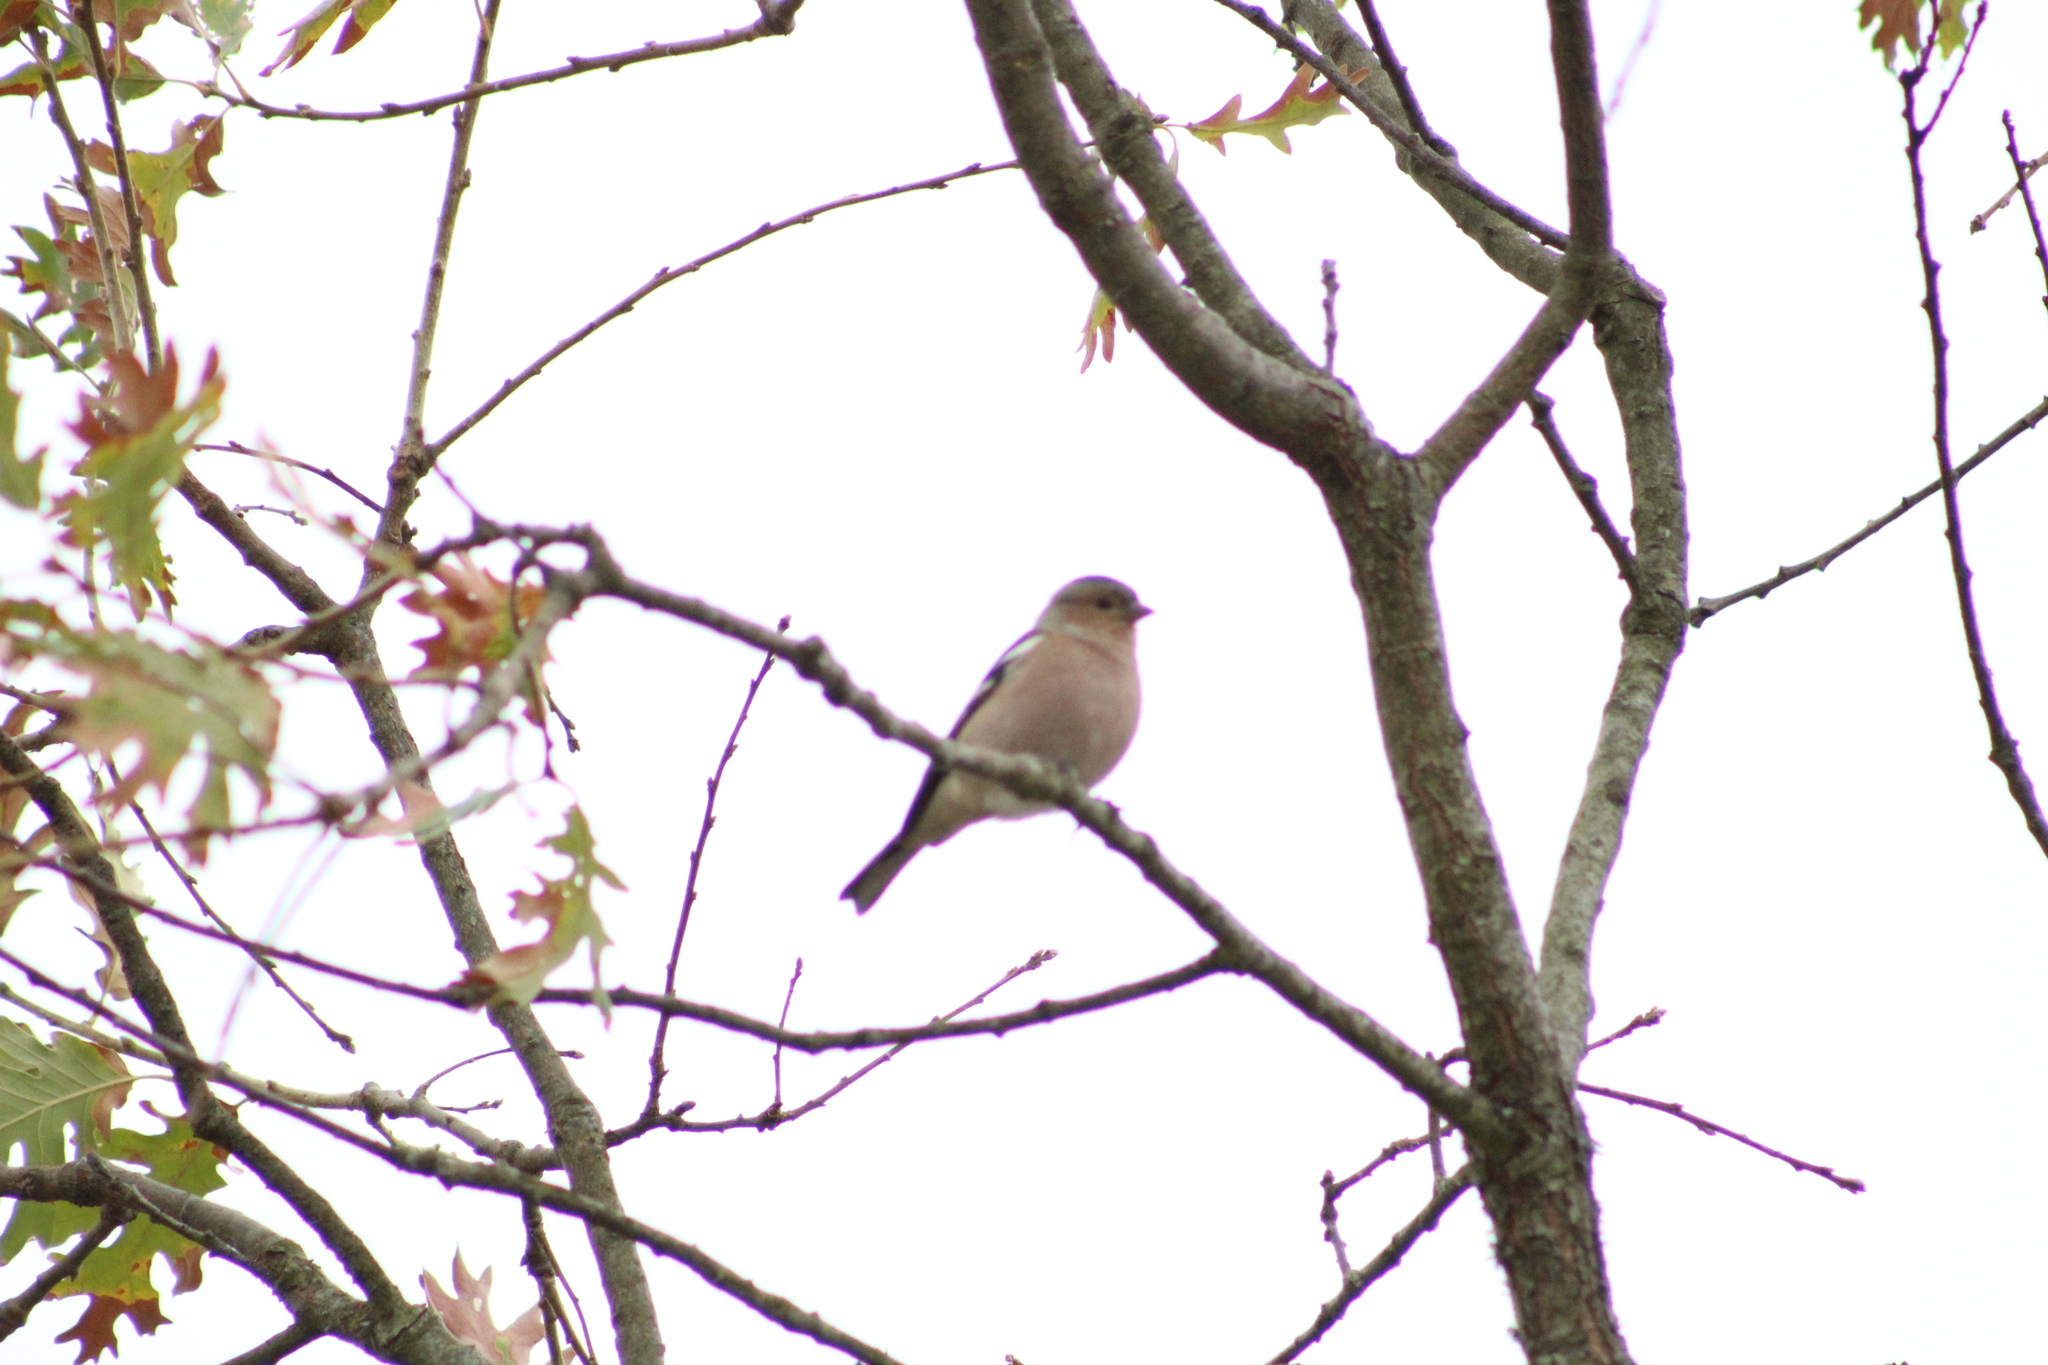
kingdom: Animalia
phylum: Chordata
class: Aves
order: Passeriformes
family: Fringillidae
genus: Fringilla
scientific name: Fringilla coelebs
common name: Common chaffinch
